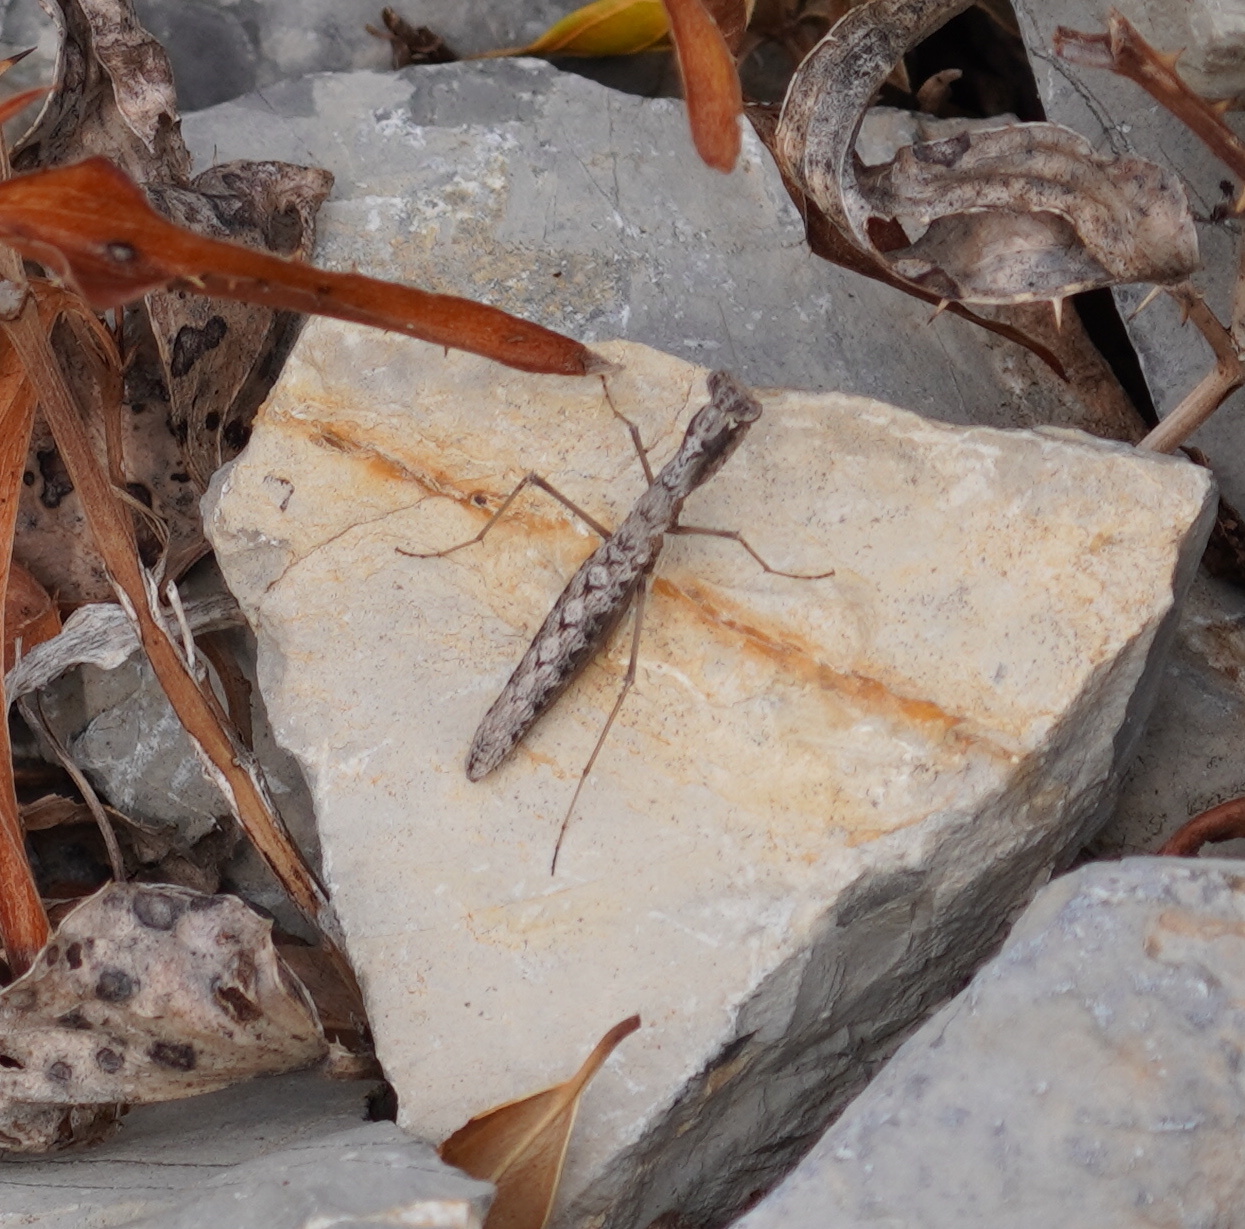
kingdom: Animalia
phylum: Arthropoda
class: Insecta
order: Mantodea
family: Rivetinidae
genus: Geomantis
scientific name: Geomantis larvoides
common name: Wingless ground mantis
